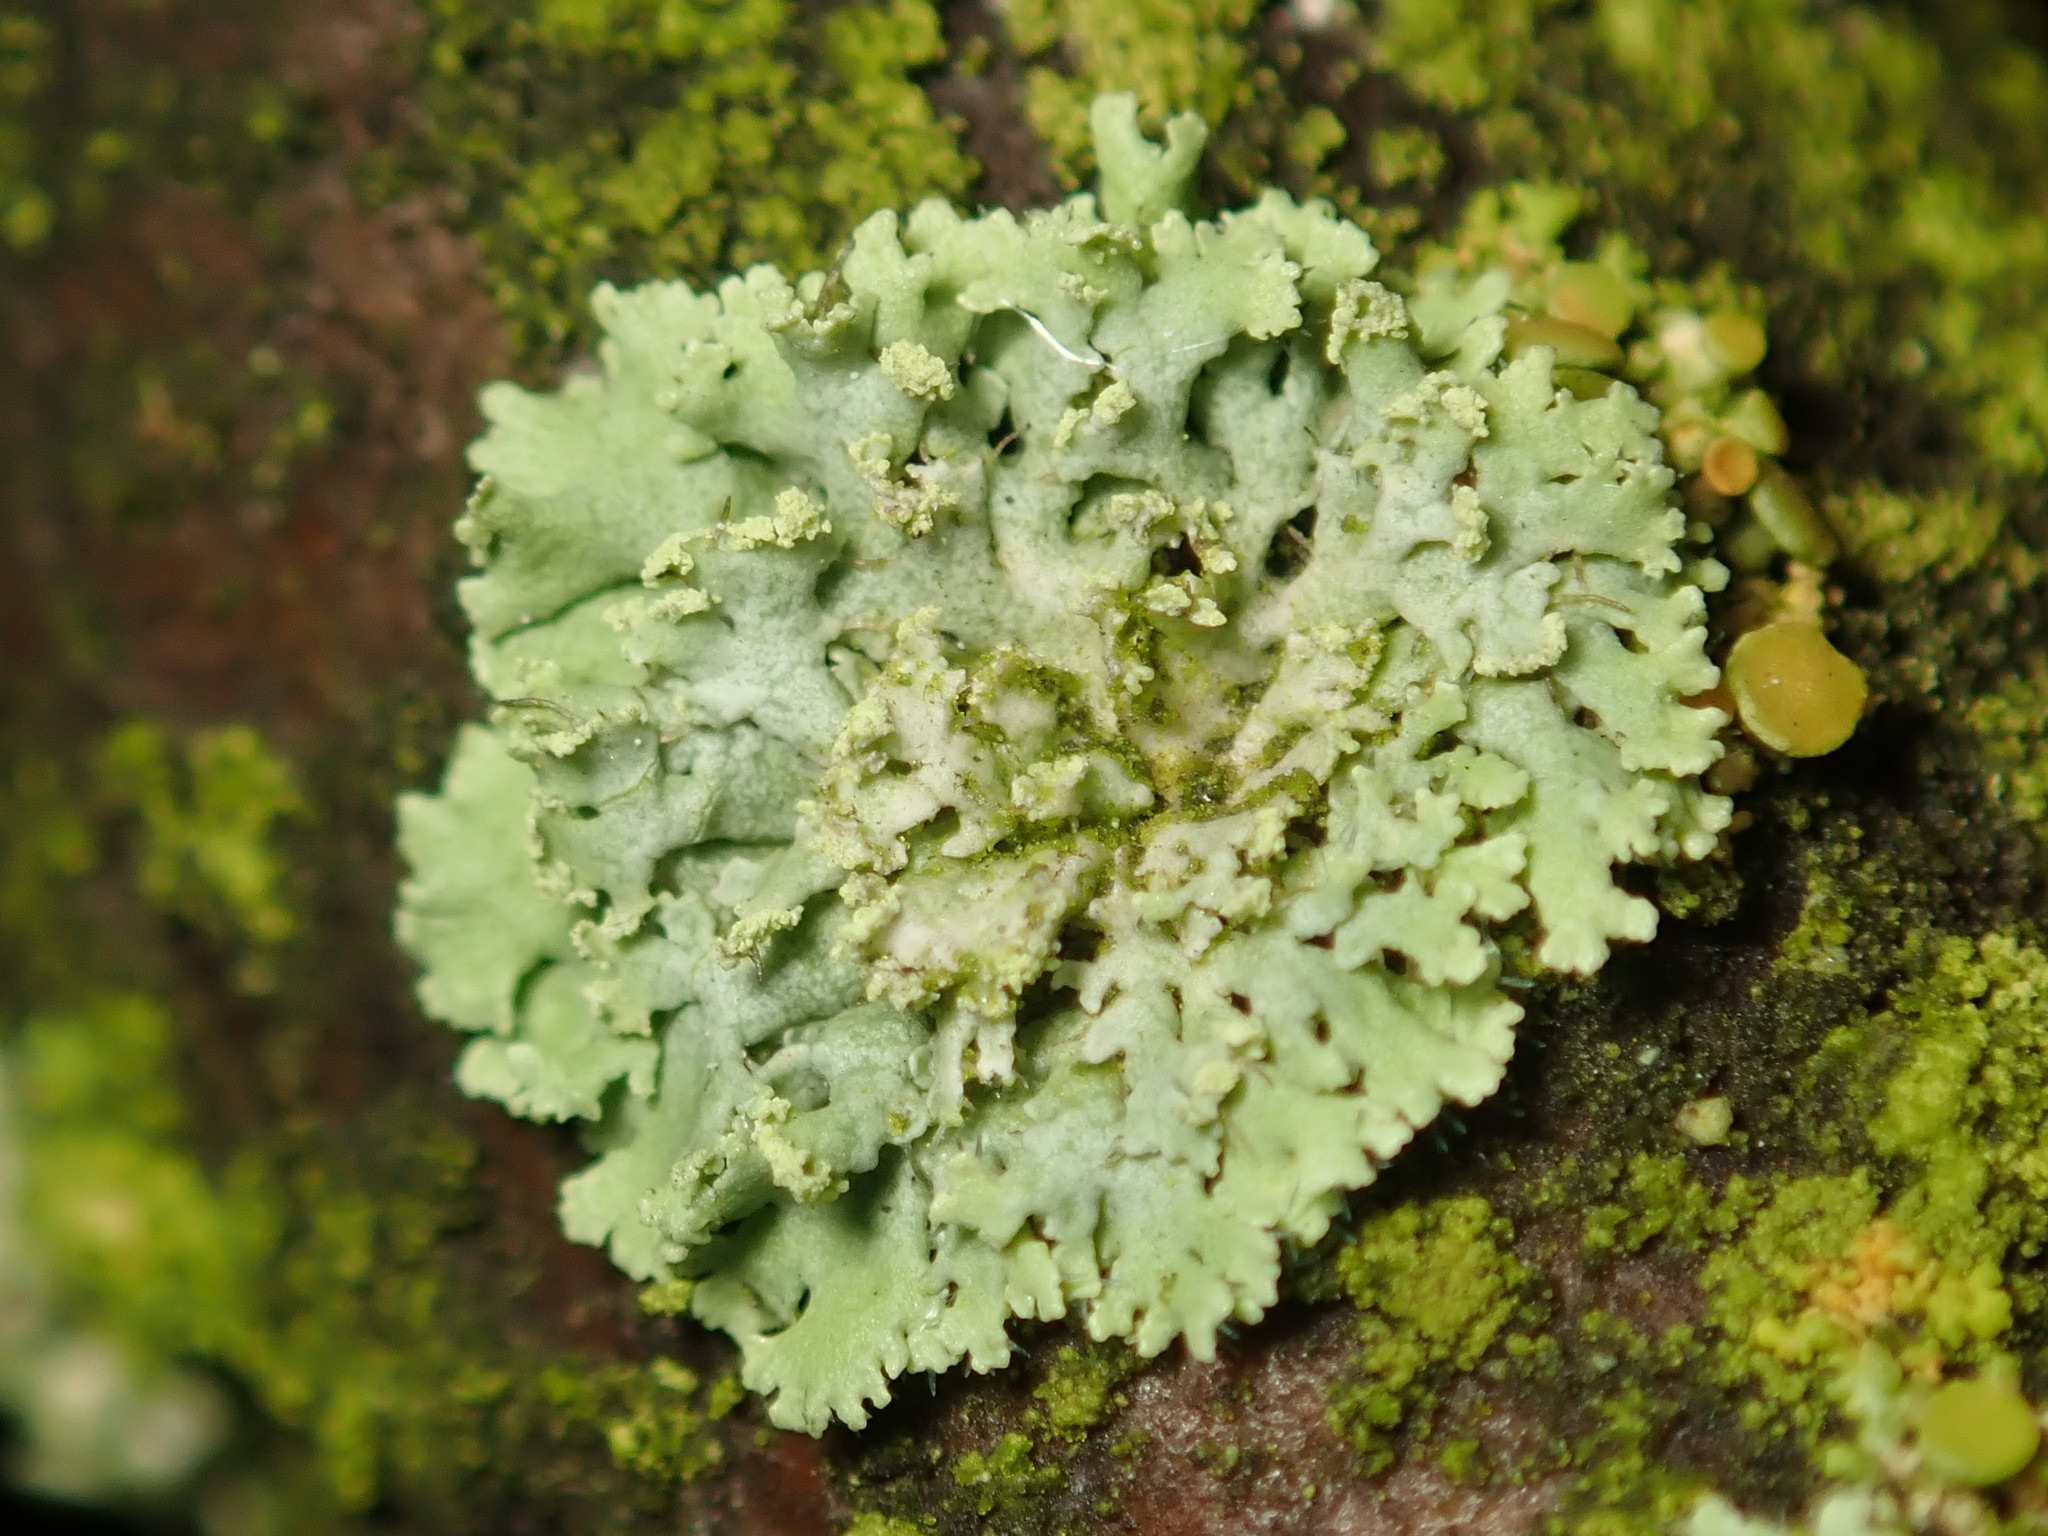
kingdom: Fungi
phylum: Ascomycota
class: Lecanoromycetes
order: Caliciales
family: Physciaceae
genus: Physcia
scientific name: Physcia dubia
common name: Powder-tipped rosette lichen
